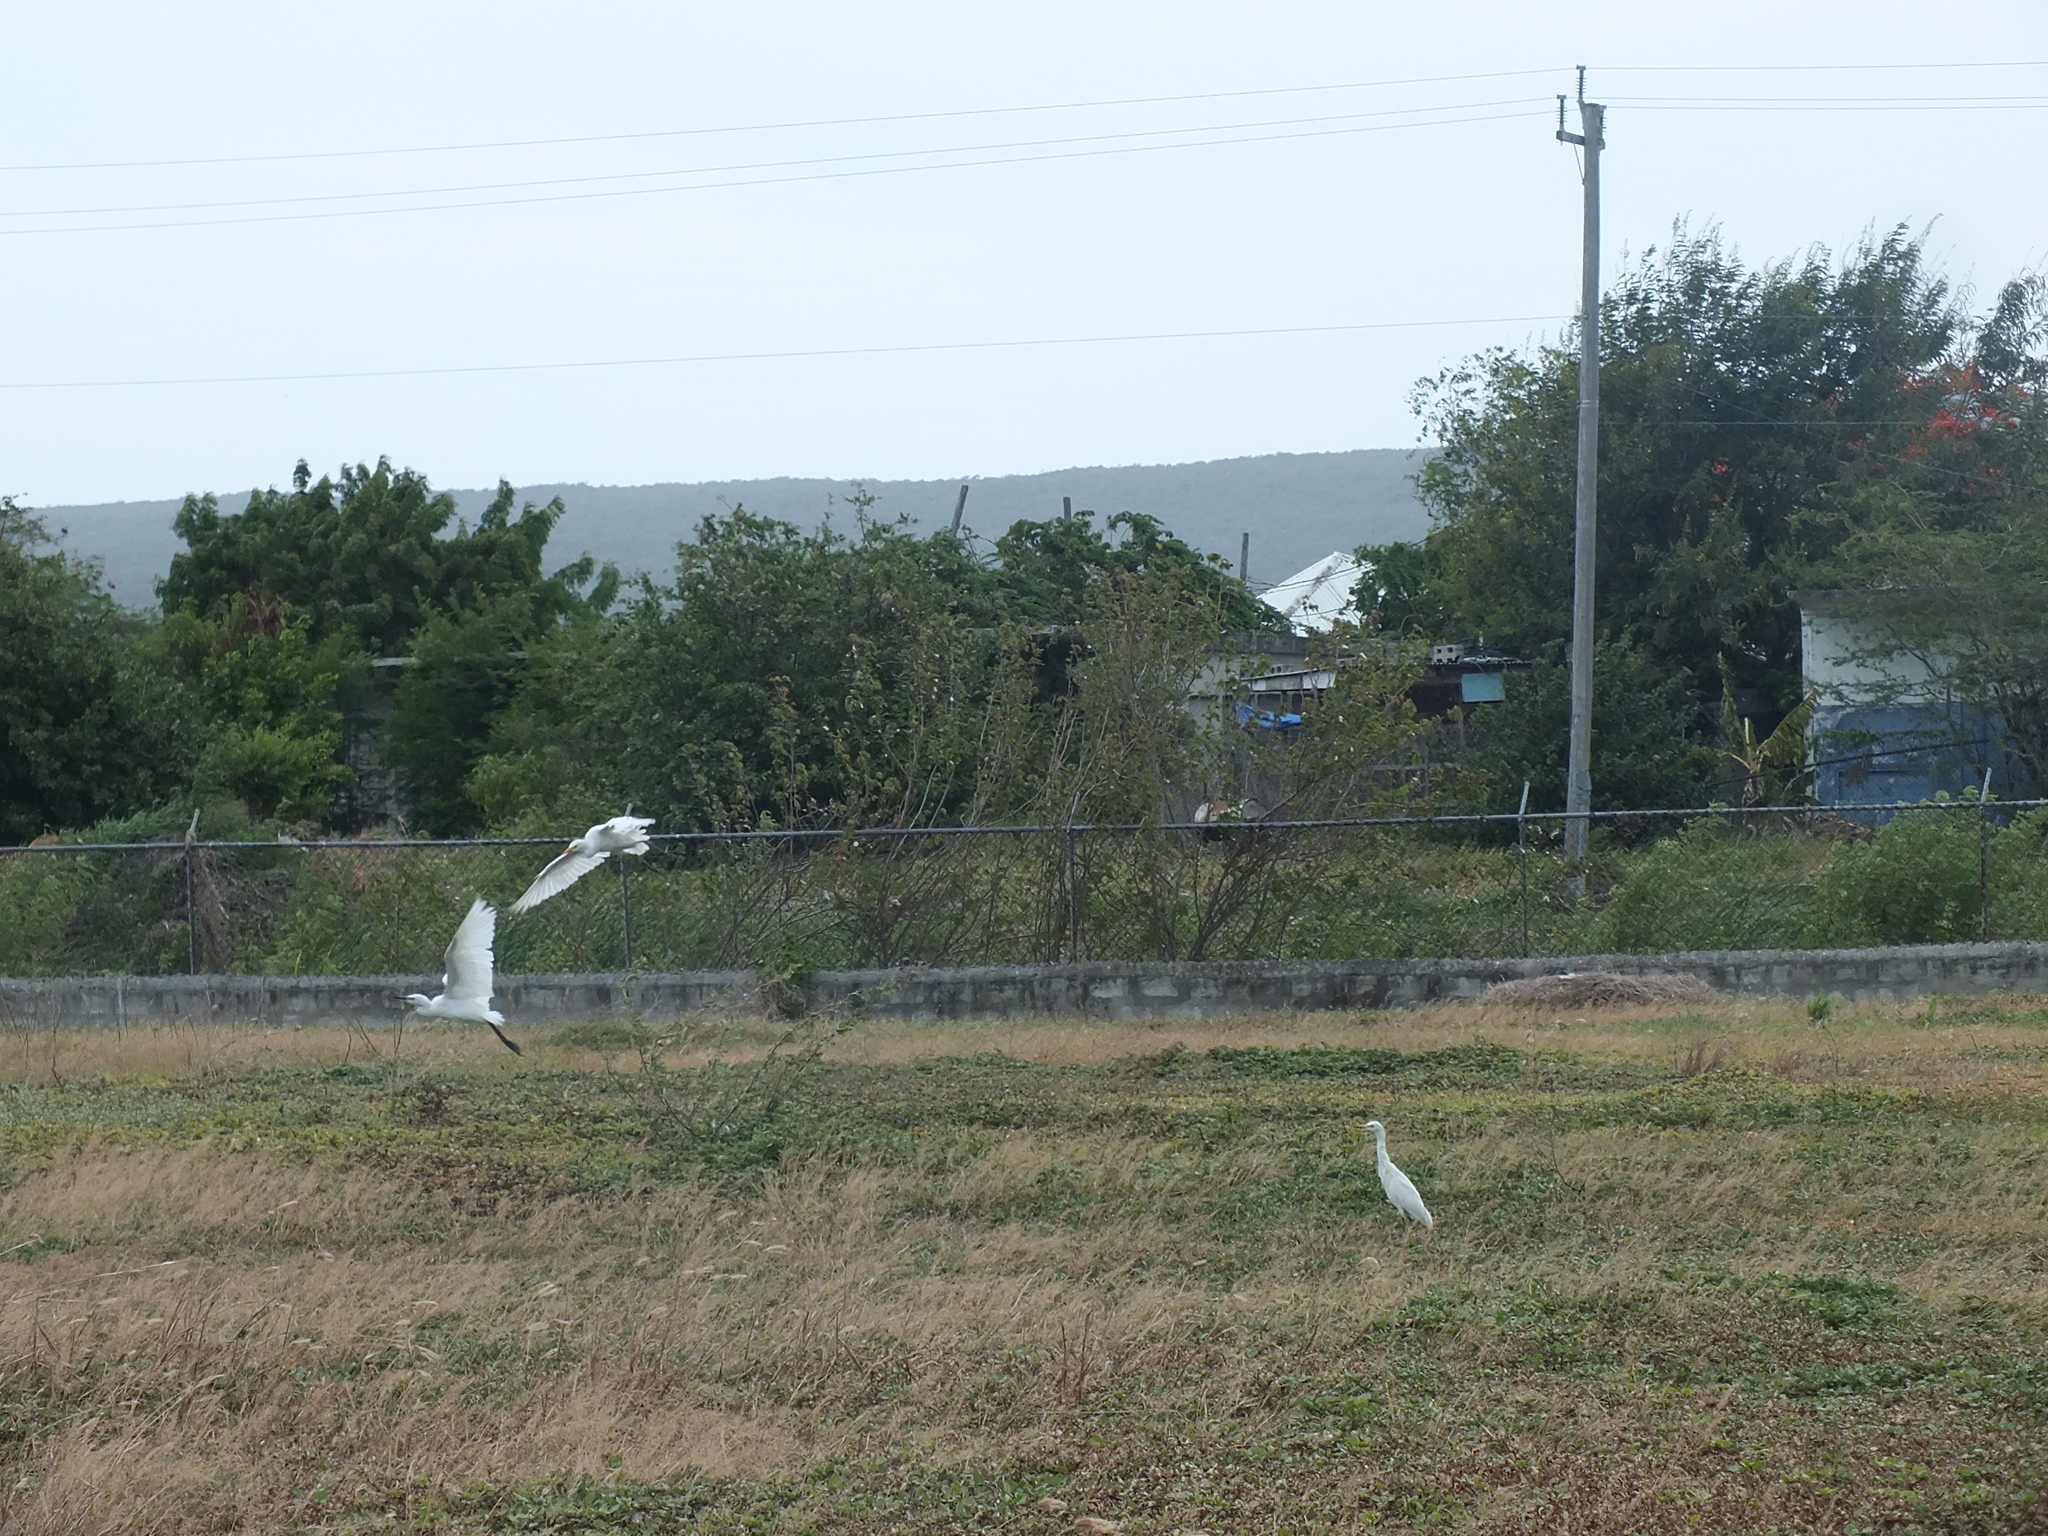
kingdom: Animalia
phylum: Chordata
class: Aves
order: Pelecaniformes
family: Ardeidae
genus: Bubulcus
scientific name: Bubulcus ibis
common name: Cattle egret
